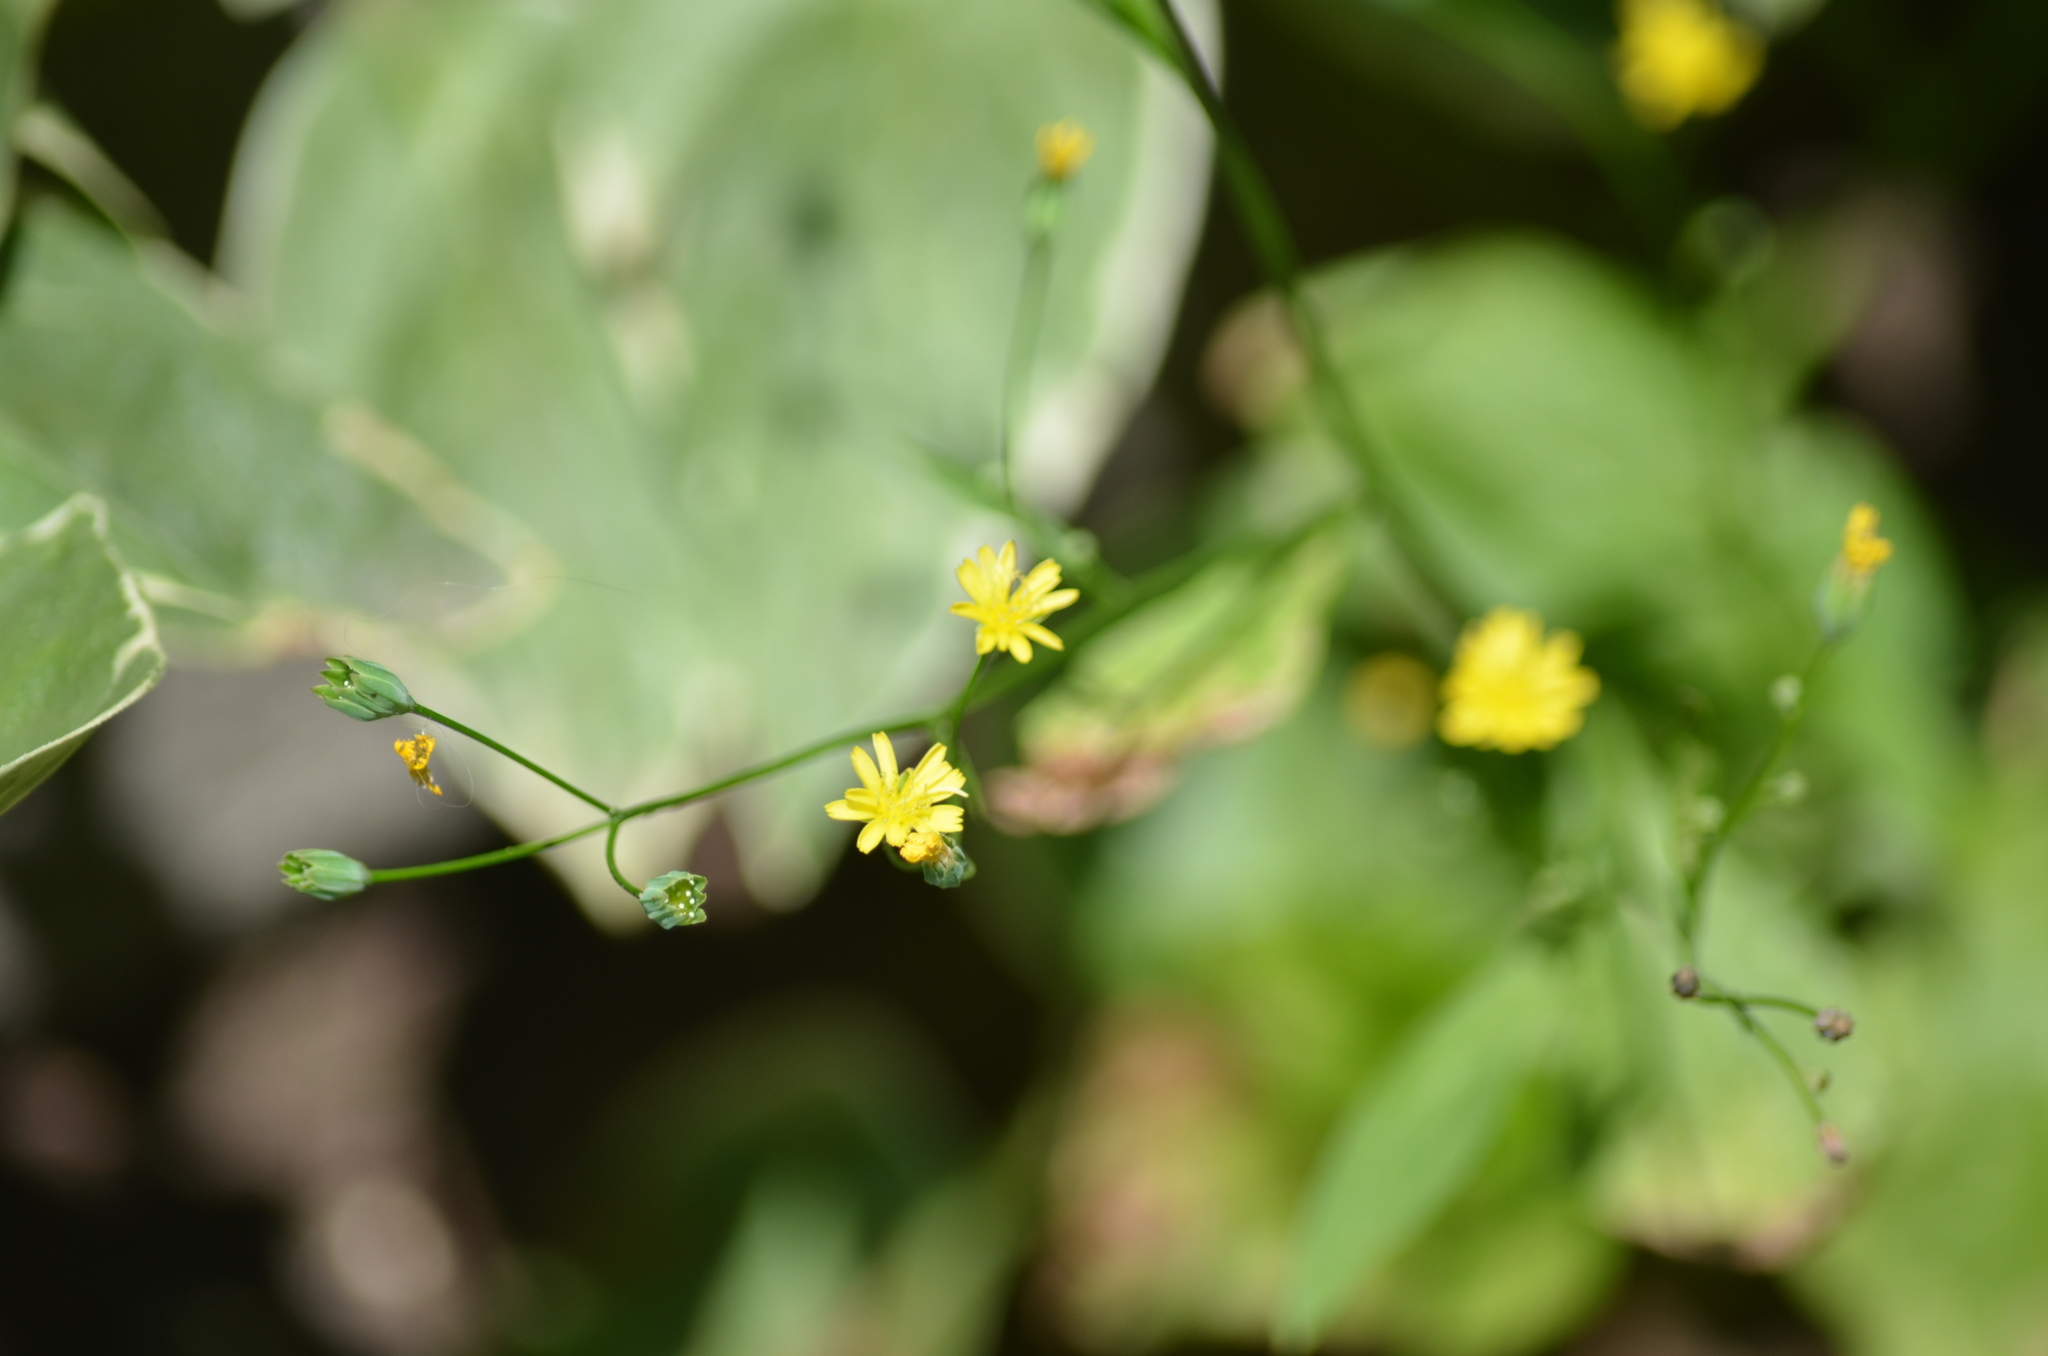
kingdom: Plantae
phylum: Tracheophyta
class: Magnoliopsida
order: Asterales
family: Asteraceae
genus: Lapsana
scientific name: Lapsana communis
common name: Nipplewort
